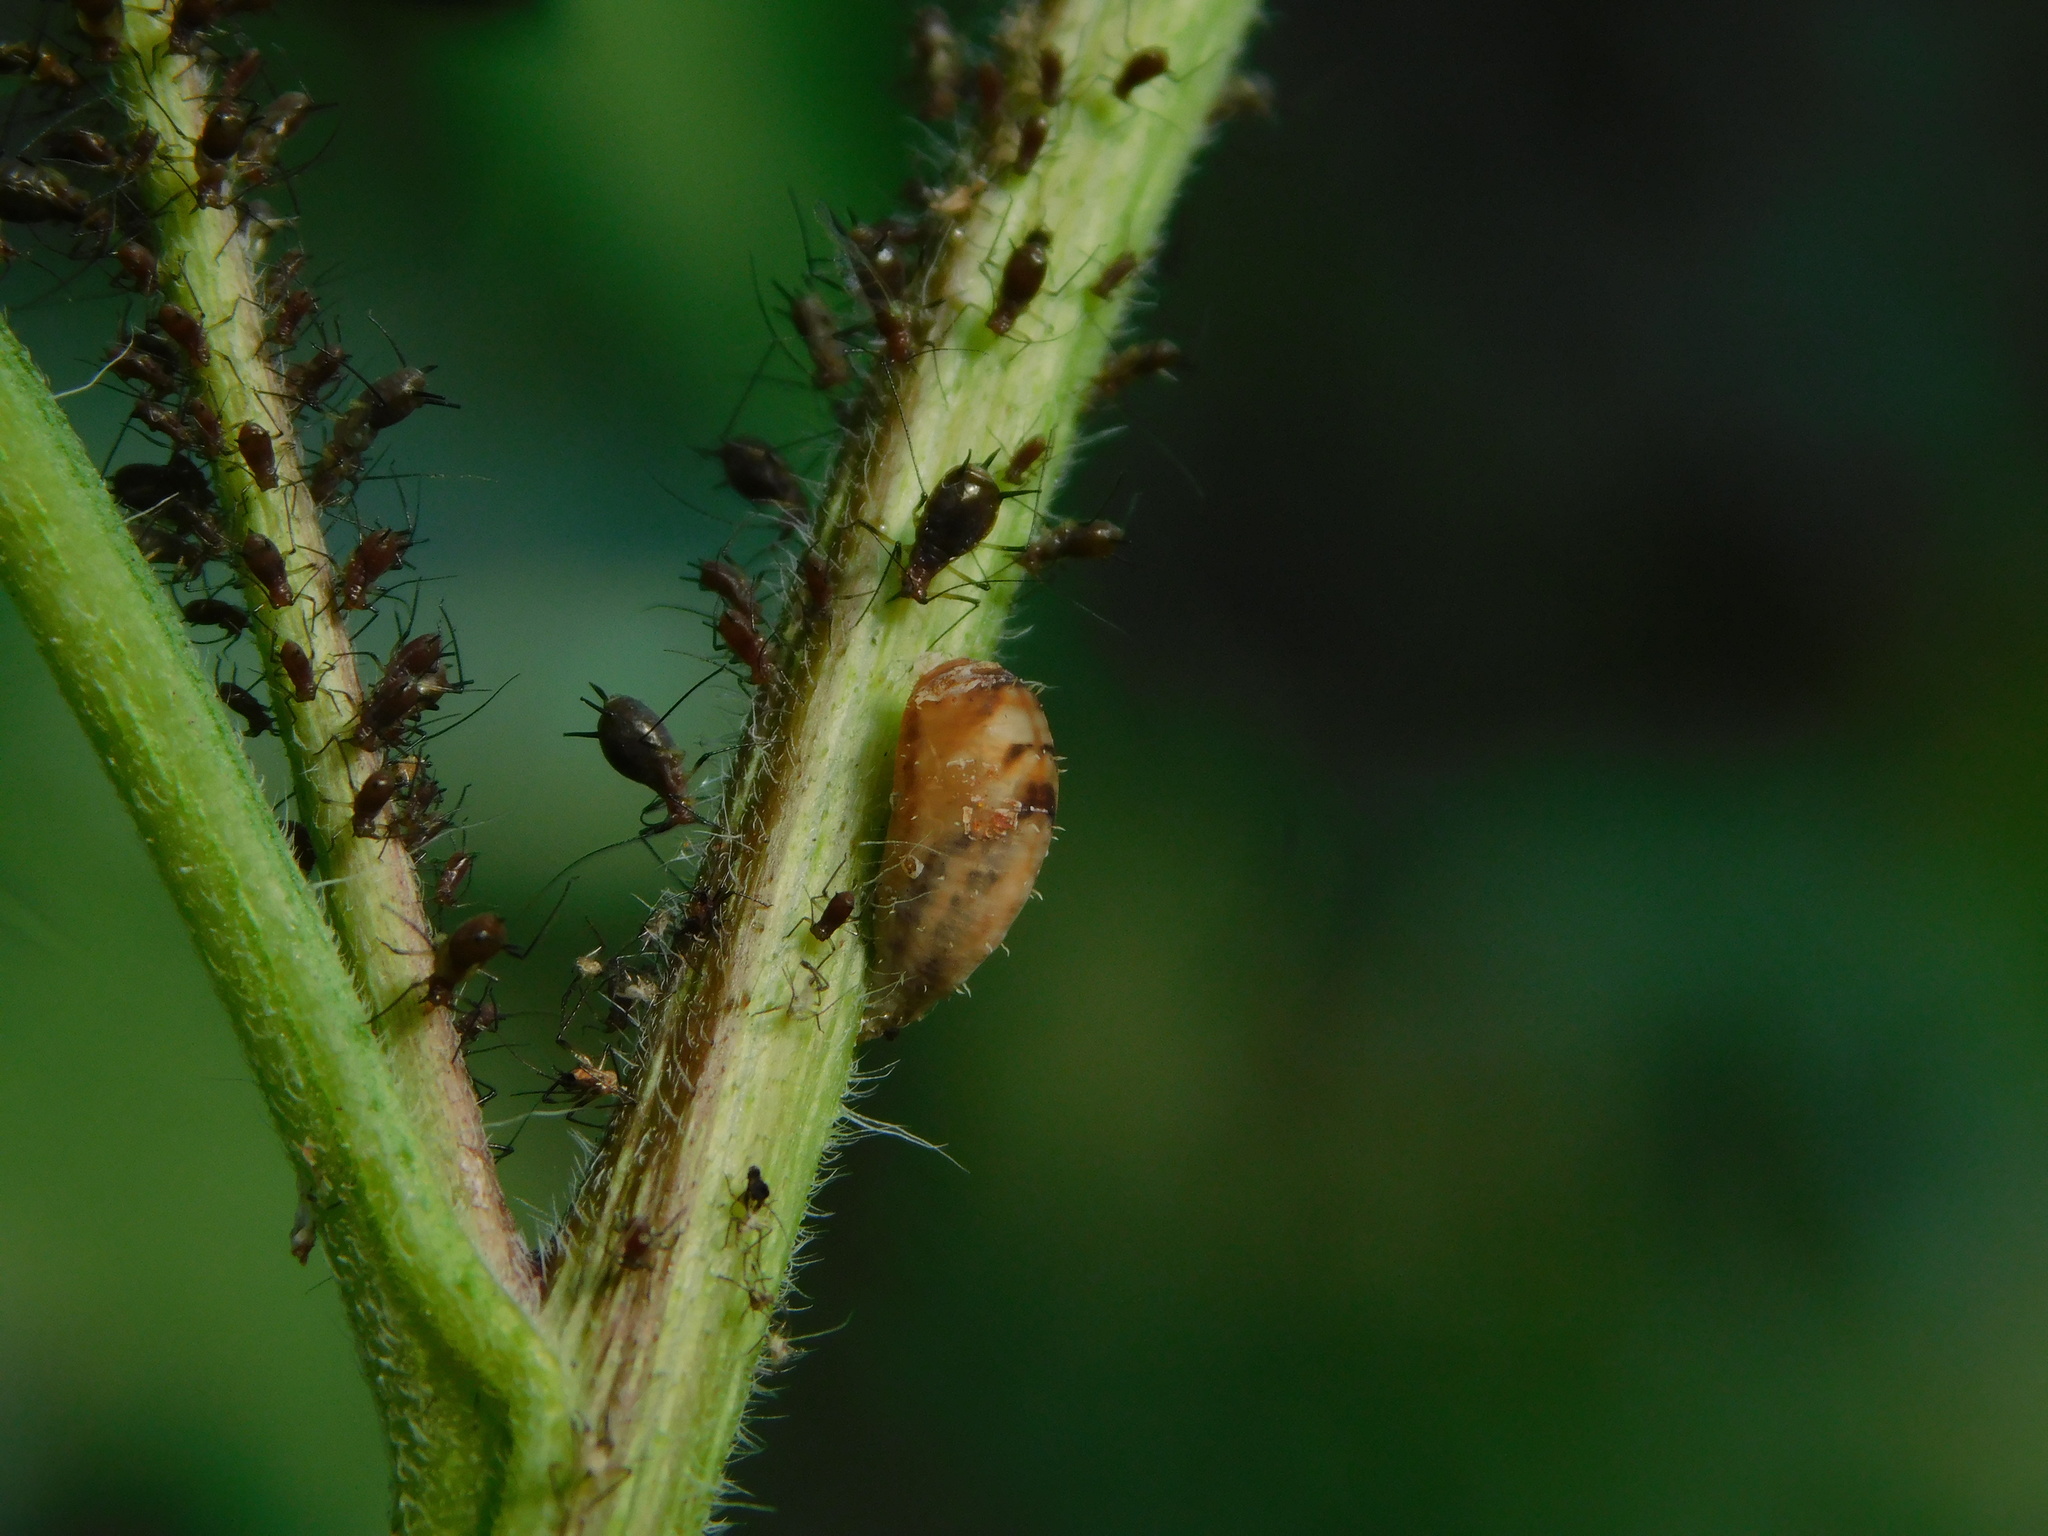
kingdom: Animalia
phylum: Arthropoda
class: Insecta
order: Diptera
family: Syrphidae
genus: Dioprosopa
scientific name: Dioprosopa clavatus
